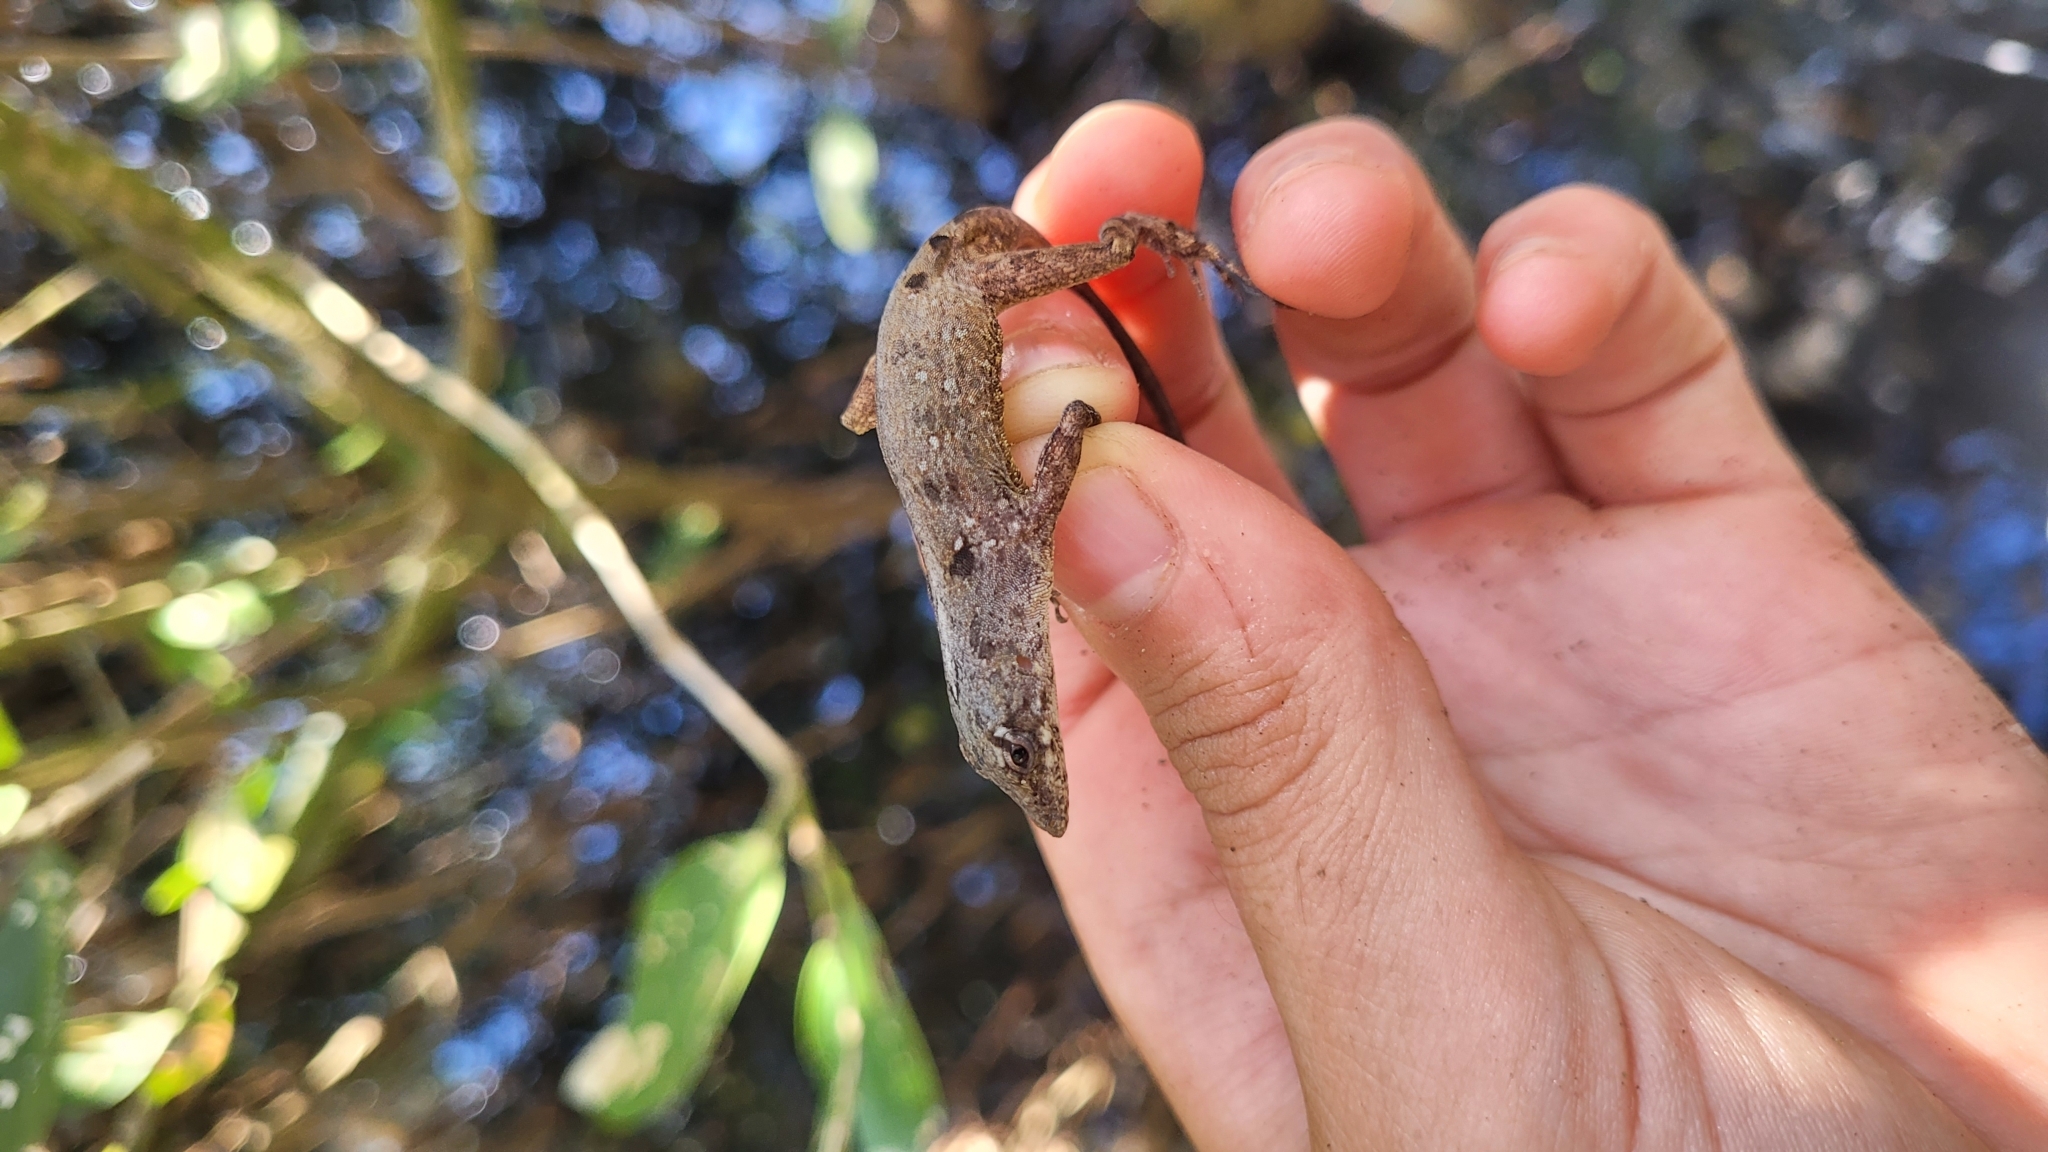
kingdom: Animalia
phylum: Chordata
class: Squamata
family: Dactyloidae
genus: Anolis
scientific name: Anolis bicaorum
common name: Bay islands anole
